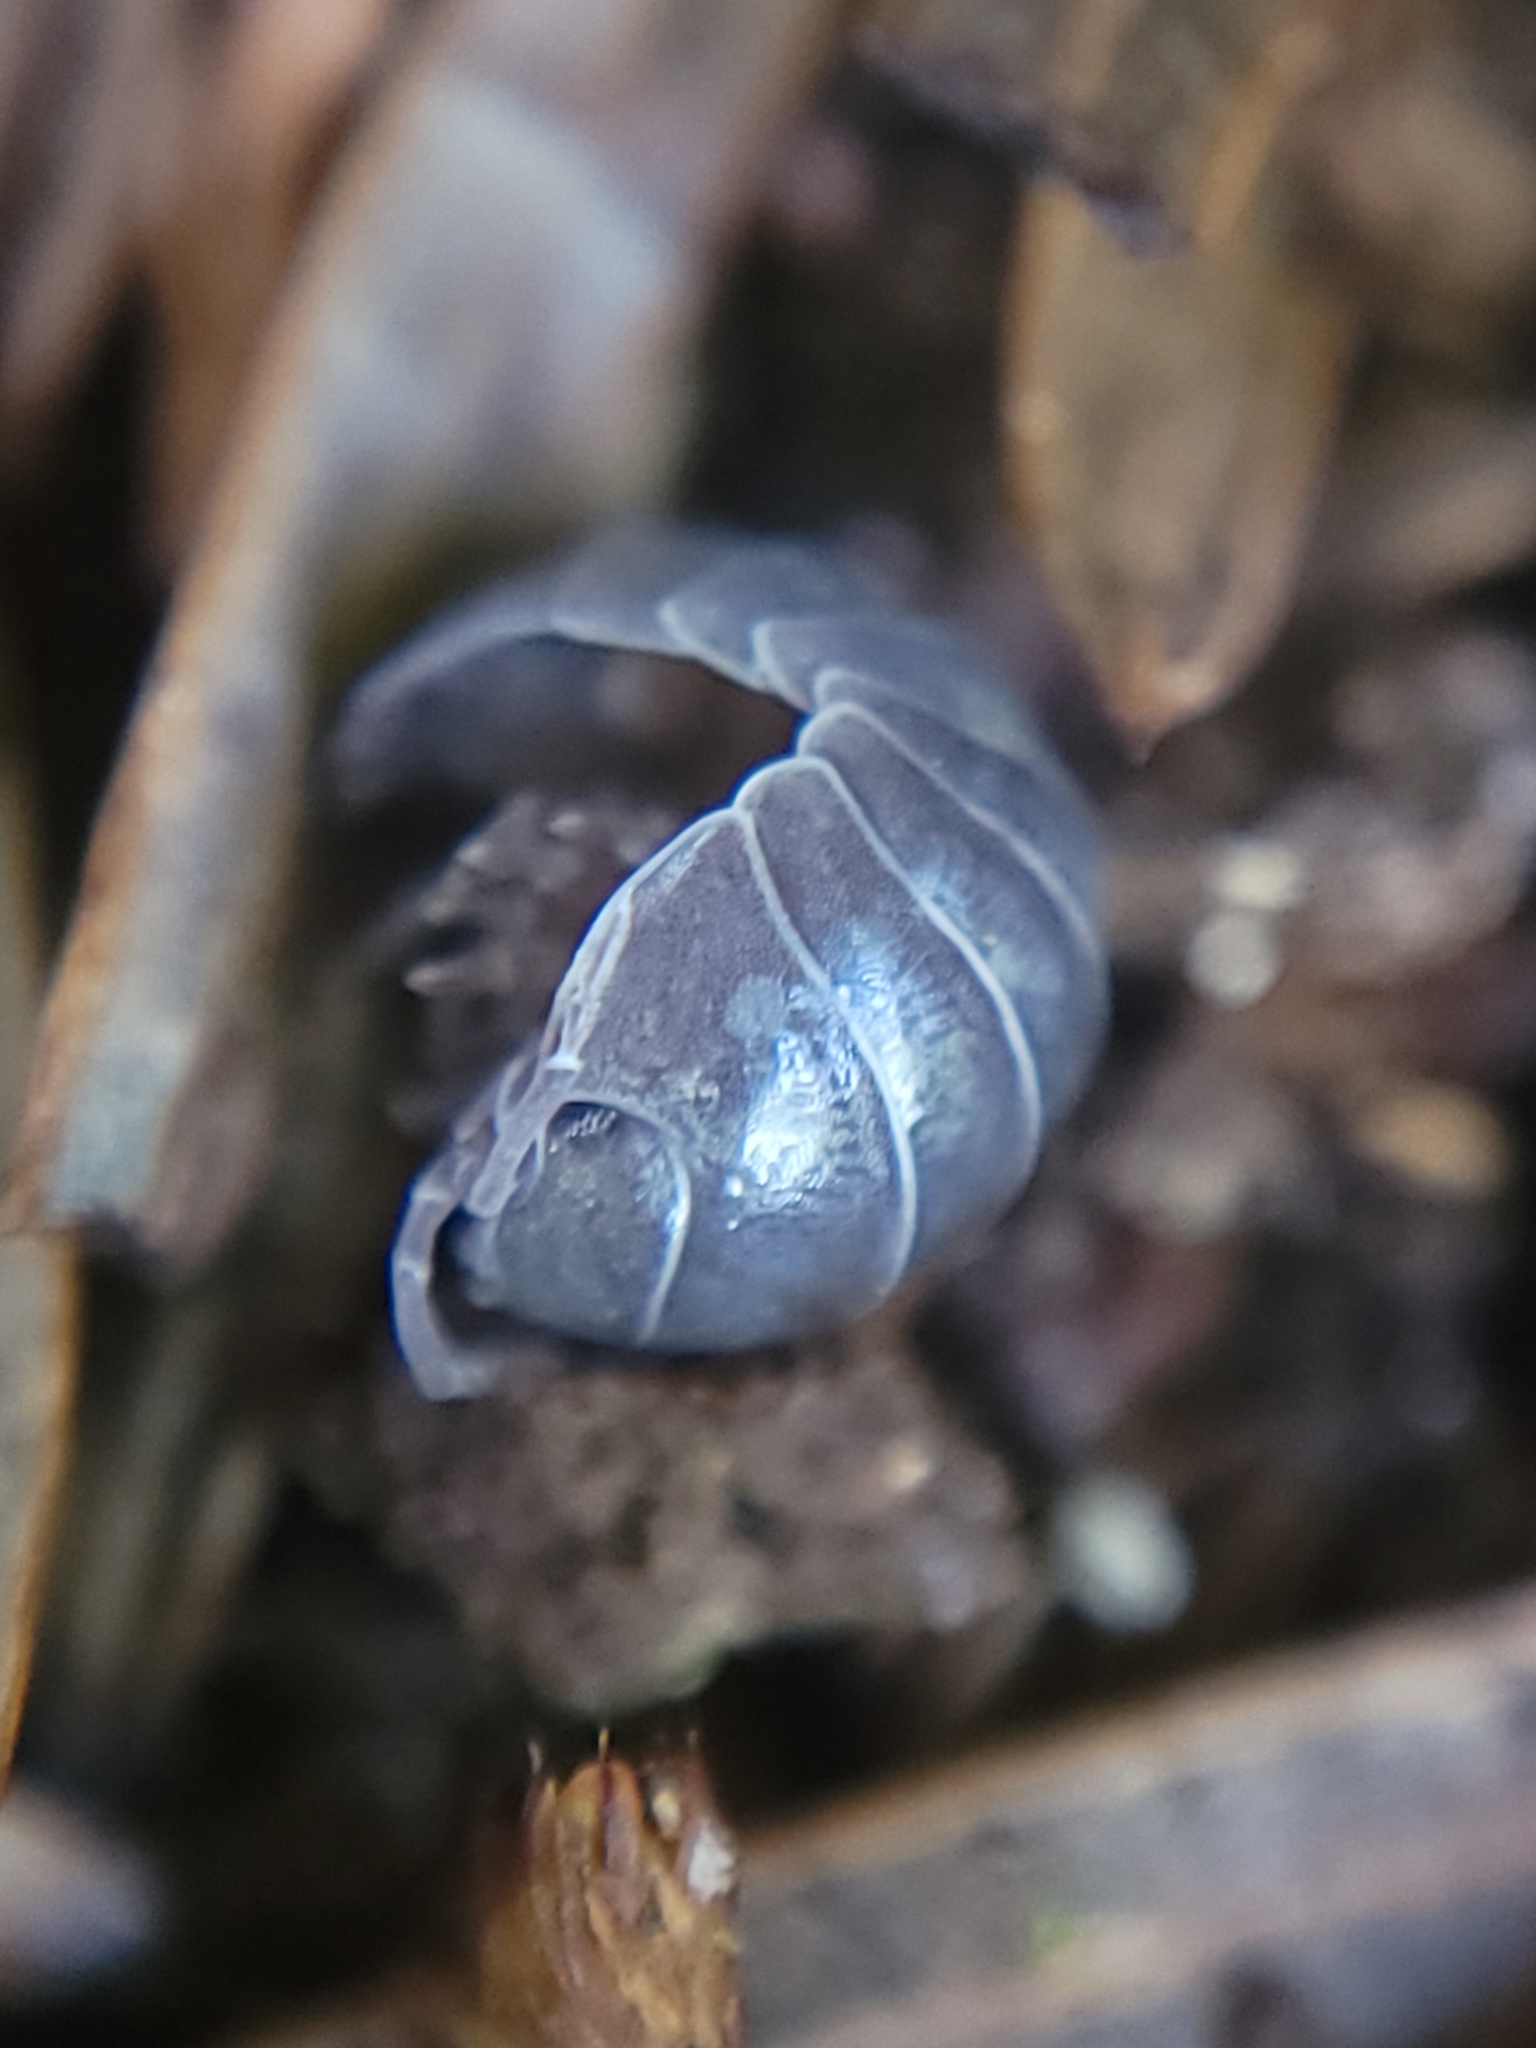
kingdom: Animalia
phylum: Arthropoda
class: Malacostraca
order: Isopoda
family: Armadillidiidae
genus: Armadillidium
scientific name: Armadillidium vulgare
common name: Common pill woodlouse
